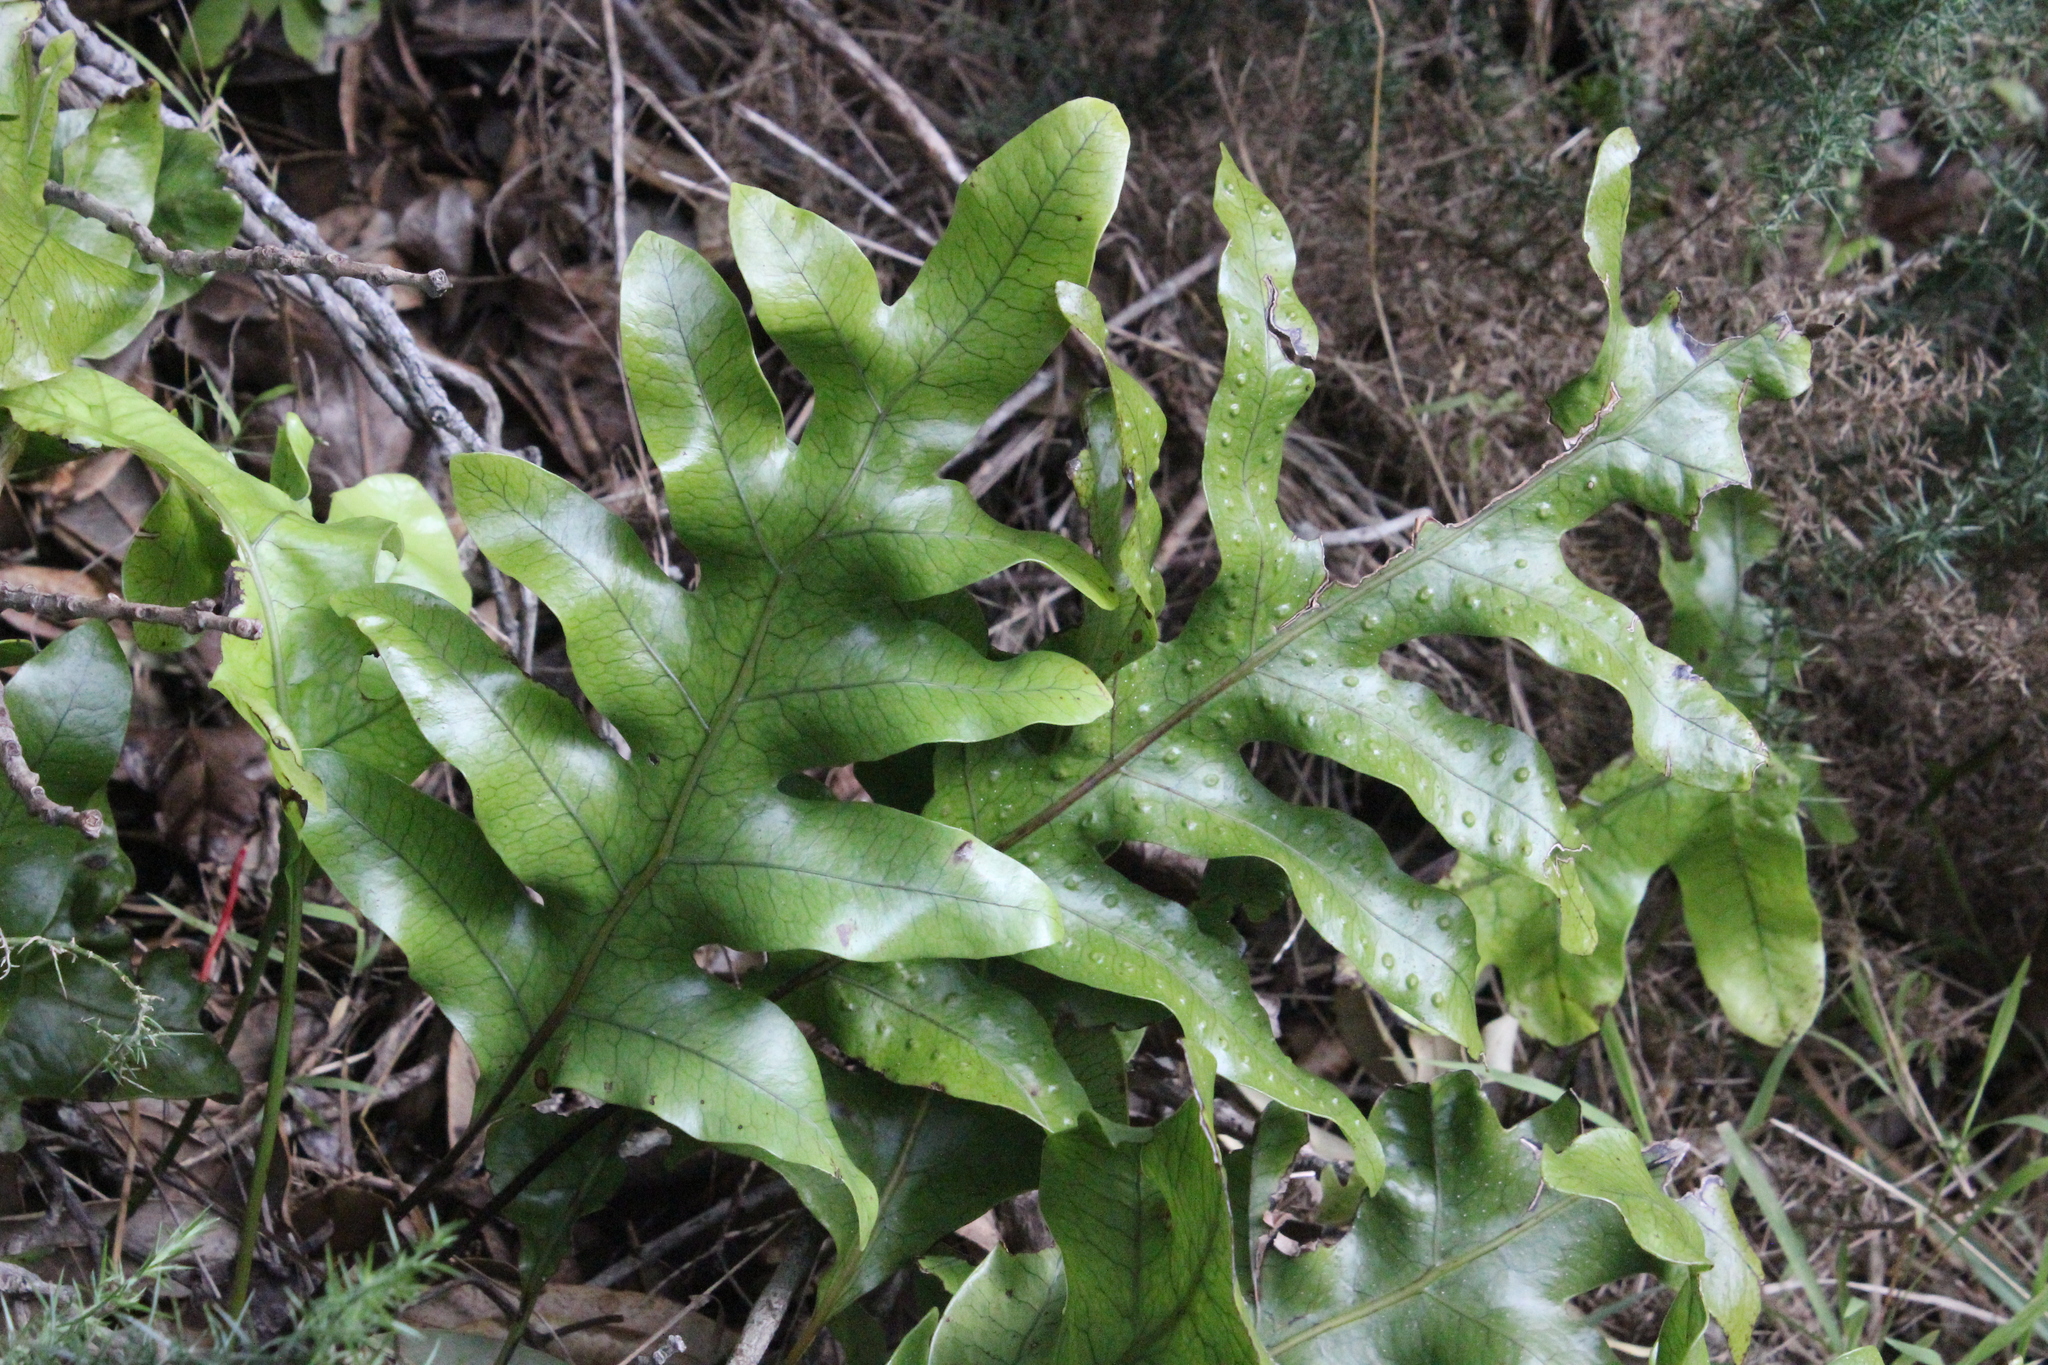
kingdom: Plantae
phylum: Tracheophyta
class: Polypodiopsida
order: Polypodiales
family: Polypodiaceae
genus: Lecanopteris
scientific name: Lecanopteris pustulata
